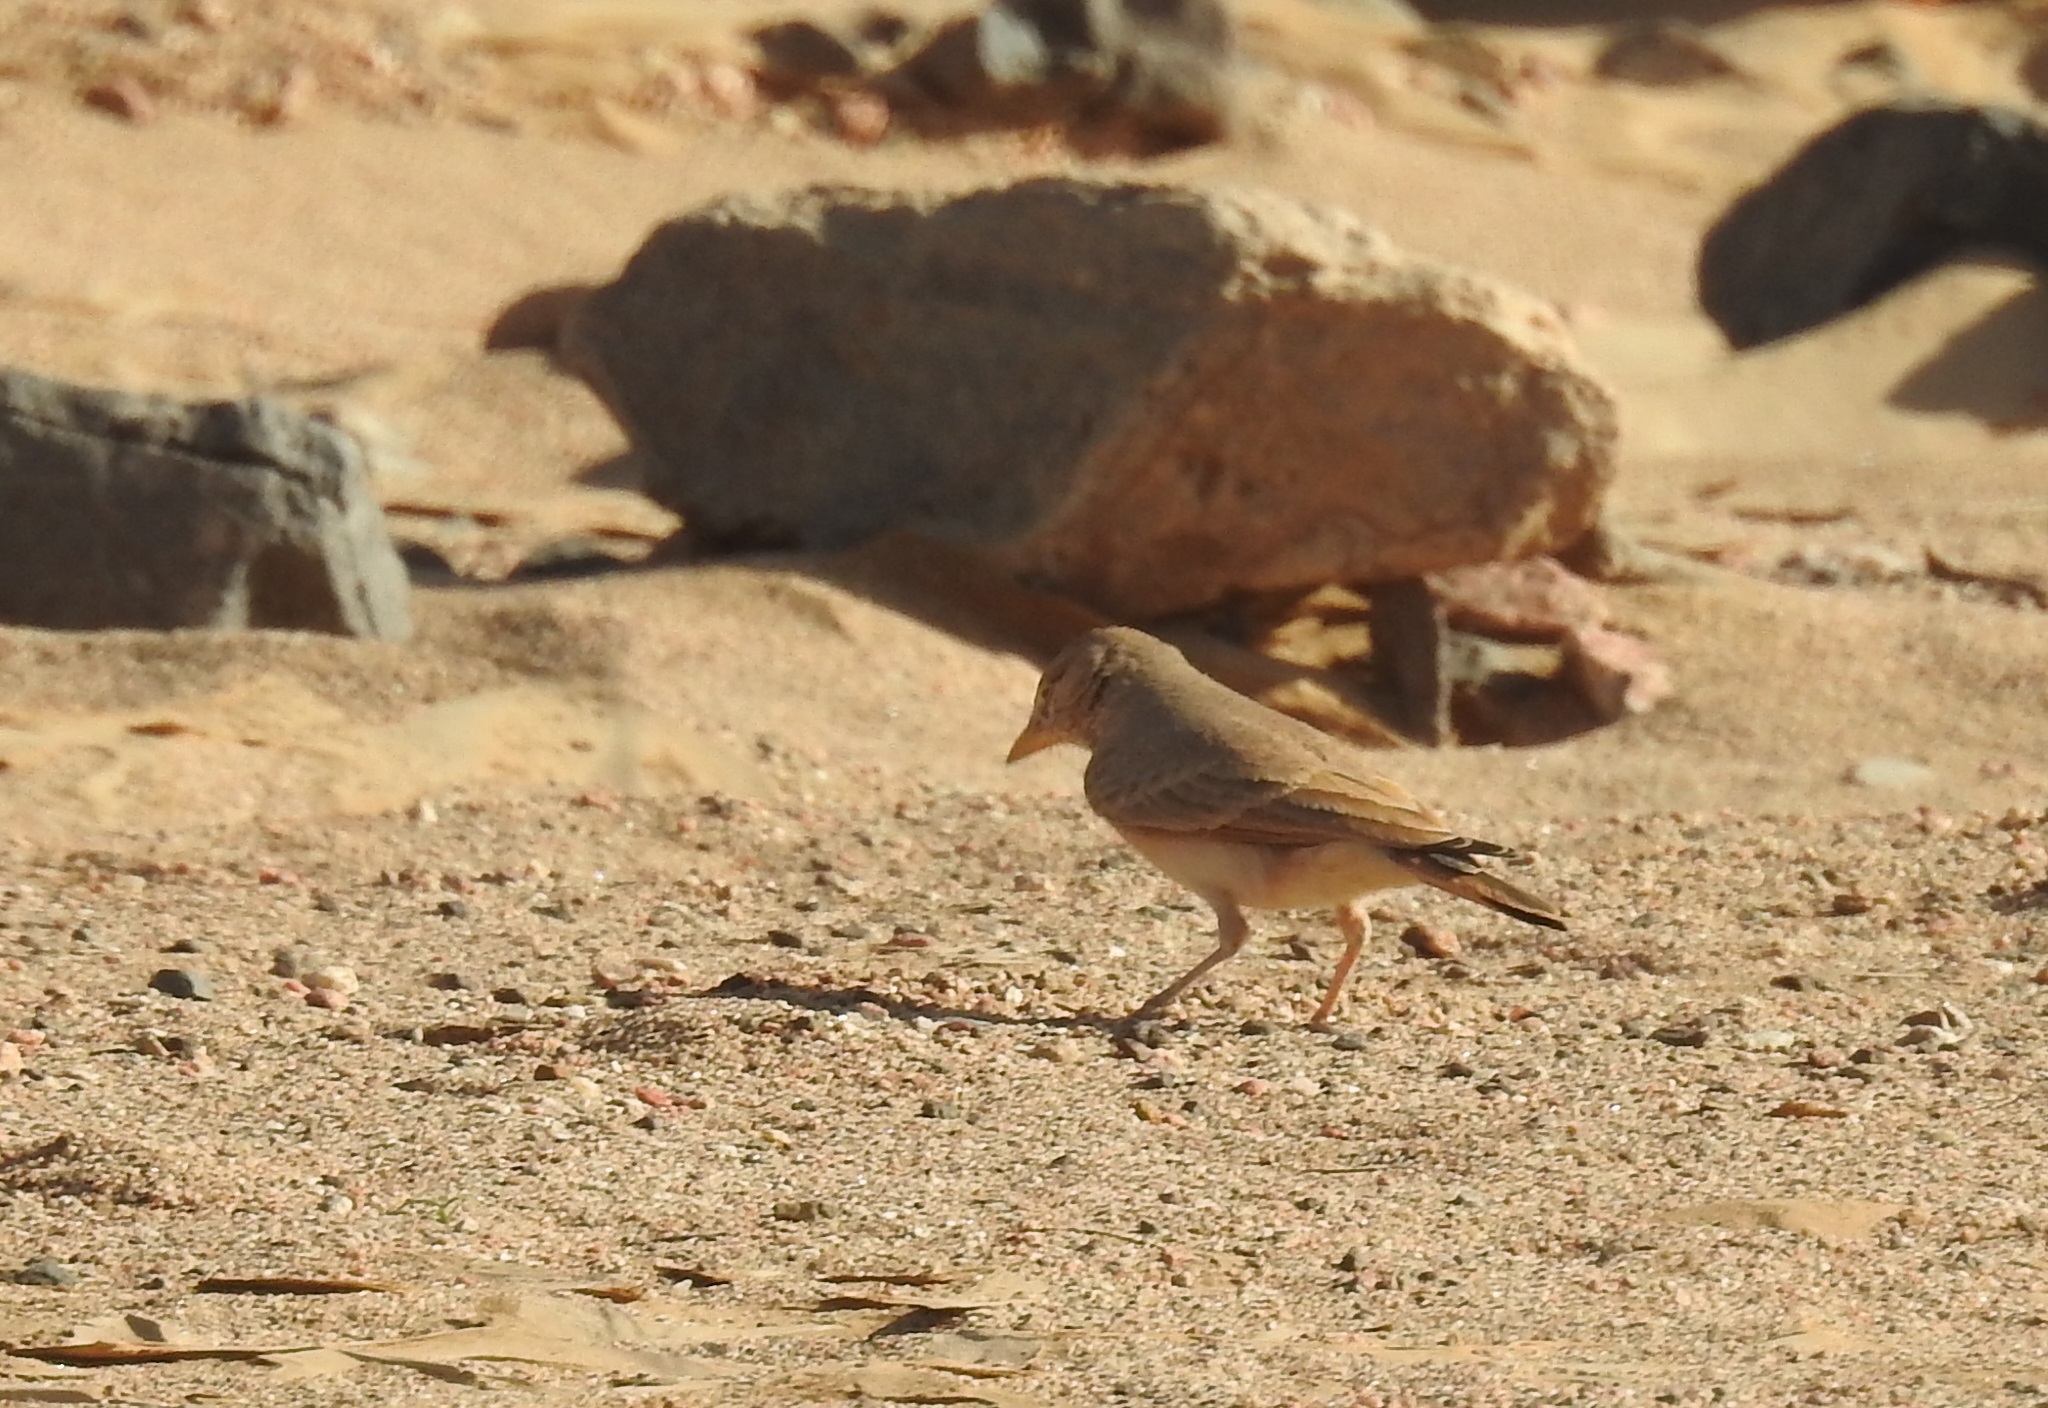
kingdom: Animalia
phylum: Chordata
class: Aves
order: Passeriformes
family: Alaudidae
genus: Ammomanes
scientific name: Ammomanes deserti
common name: Desert lark
